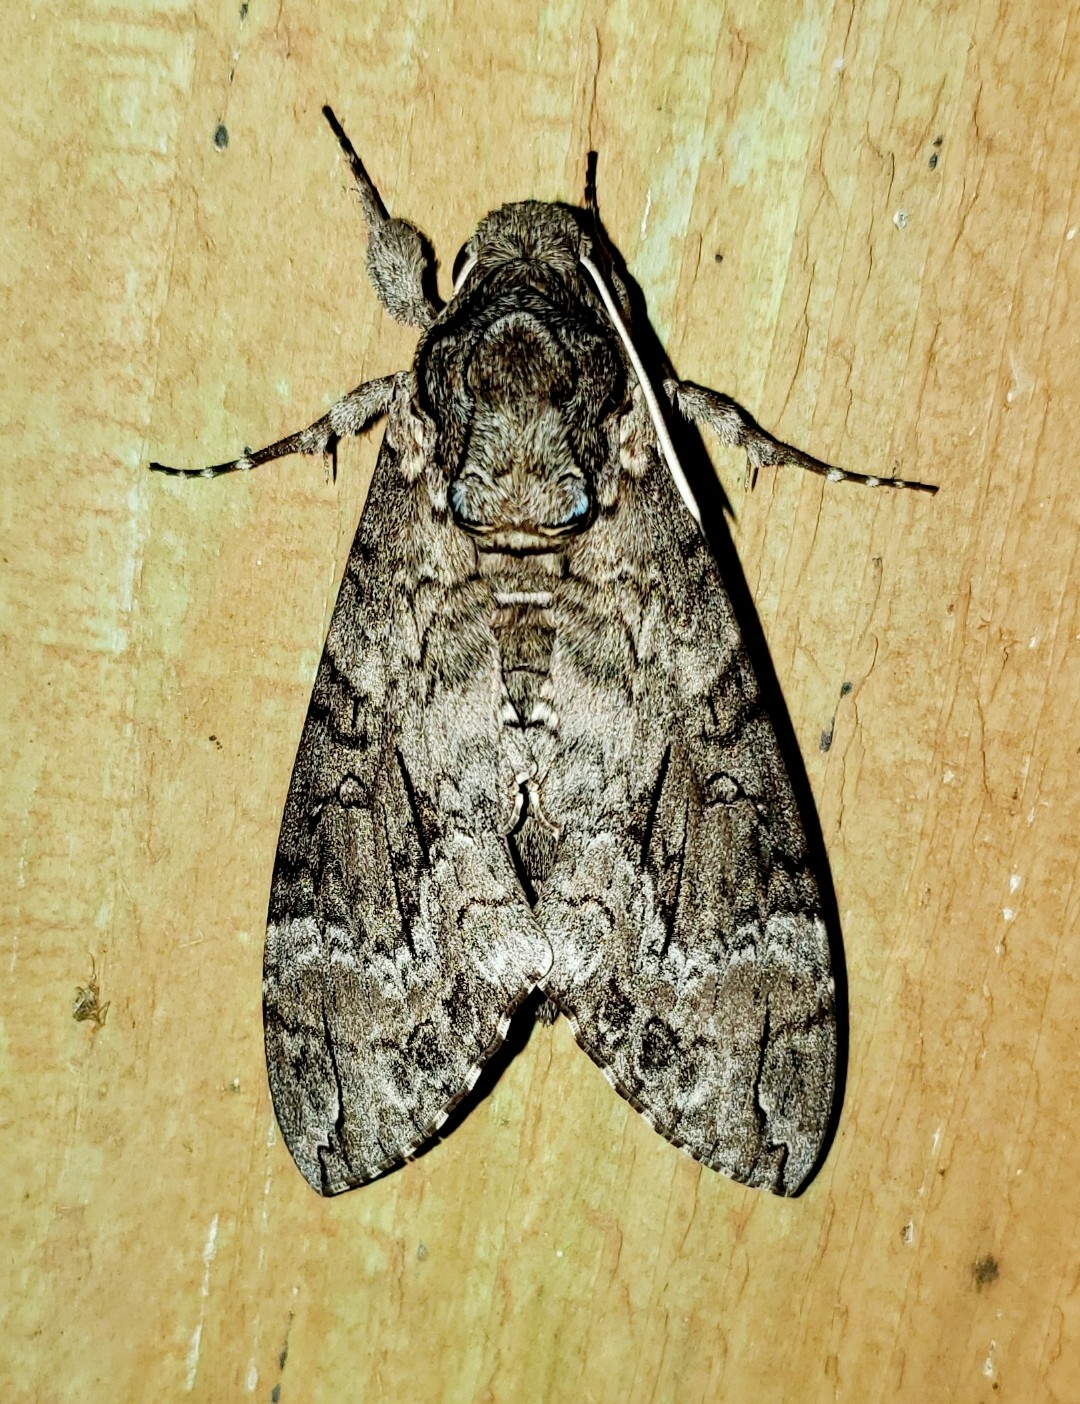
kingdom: Animalia
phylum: Arthropoda
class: Insecta
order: Lepidoptera
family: Sphingidae
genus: Agrius
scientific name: Agrius cingulata
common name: Pink-spotted hawkmoth
